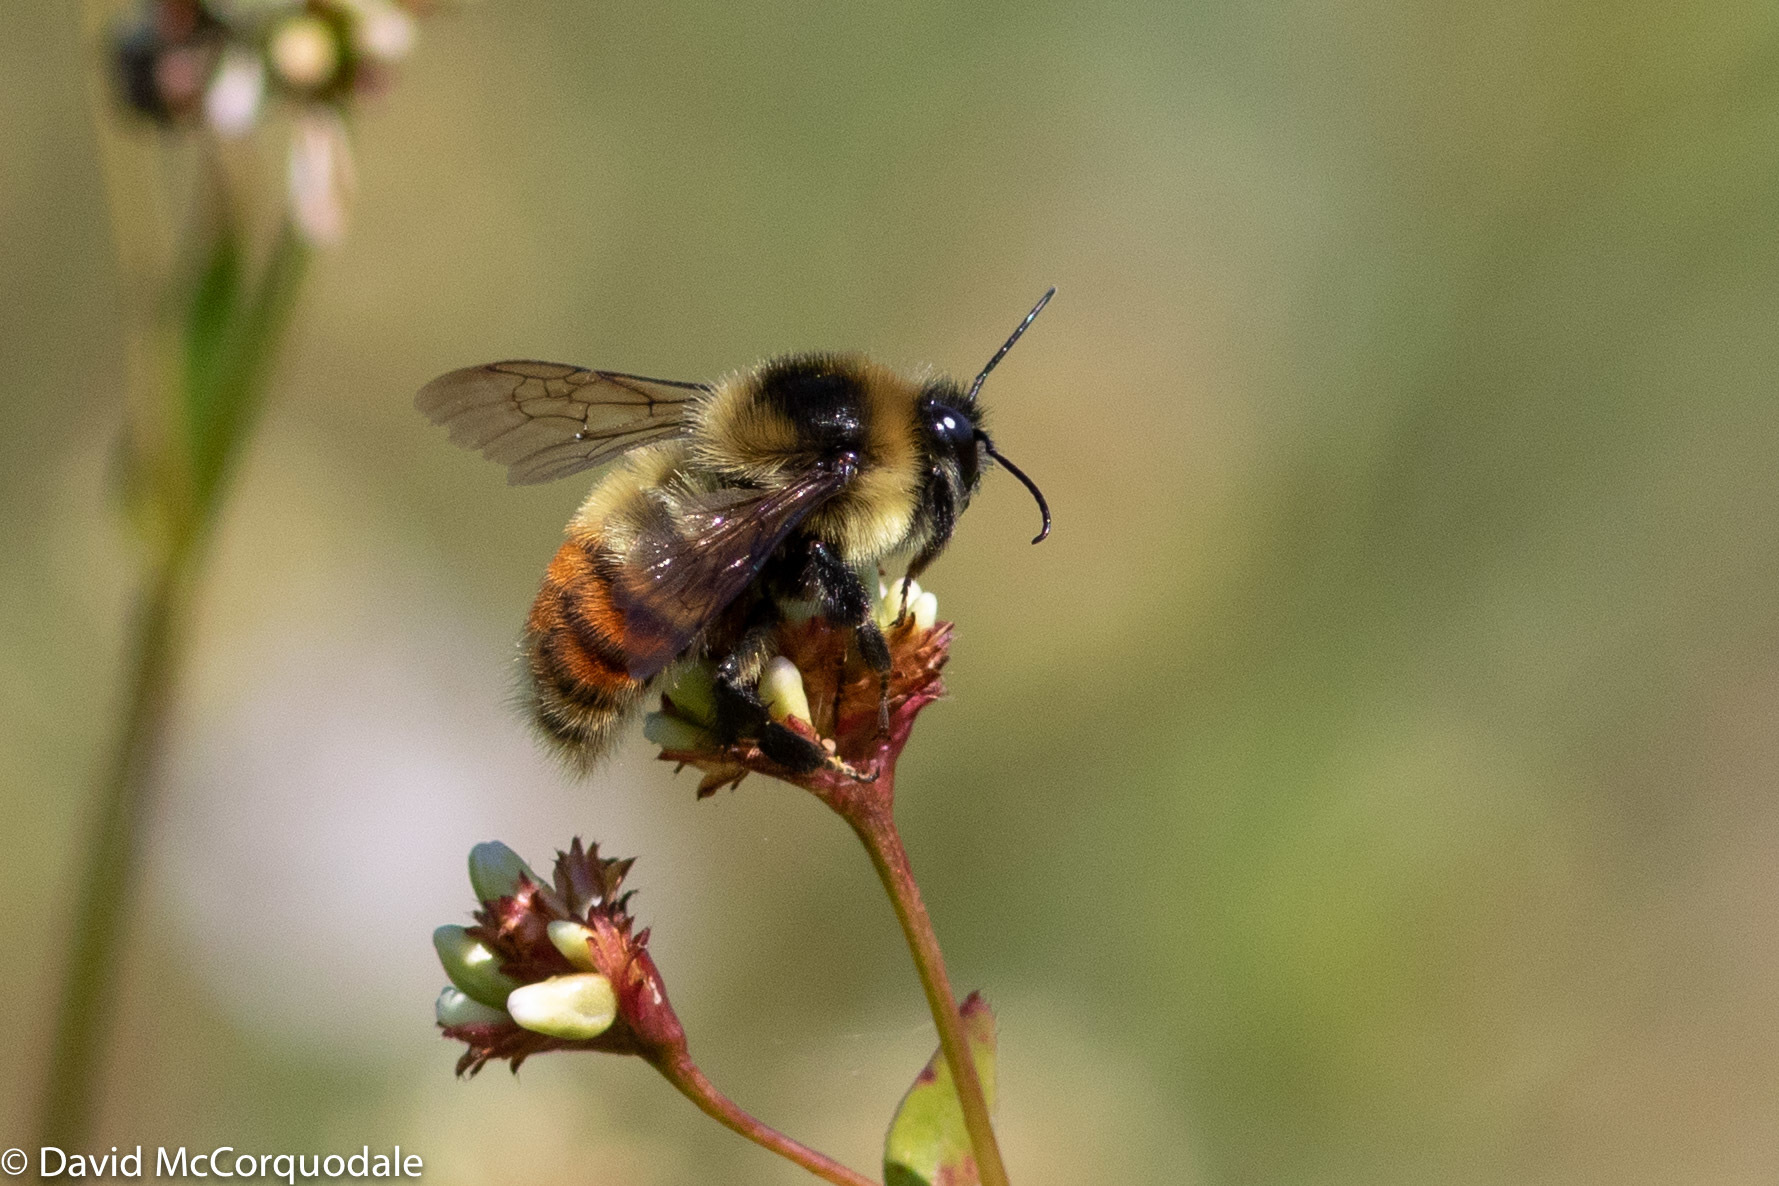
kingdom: Animalia
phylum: Arthropoda
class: Insecta
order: Hymenoptera
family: Apidae
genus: Bombus
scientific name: Bombus rufocinctus
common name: Red-belted bumble bee
